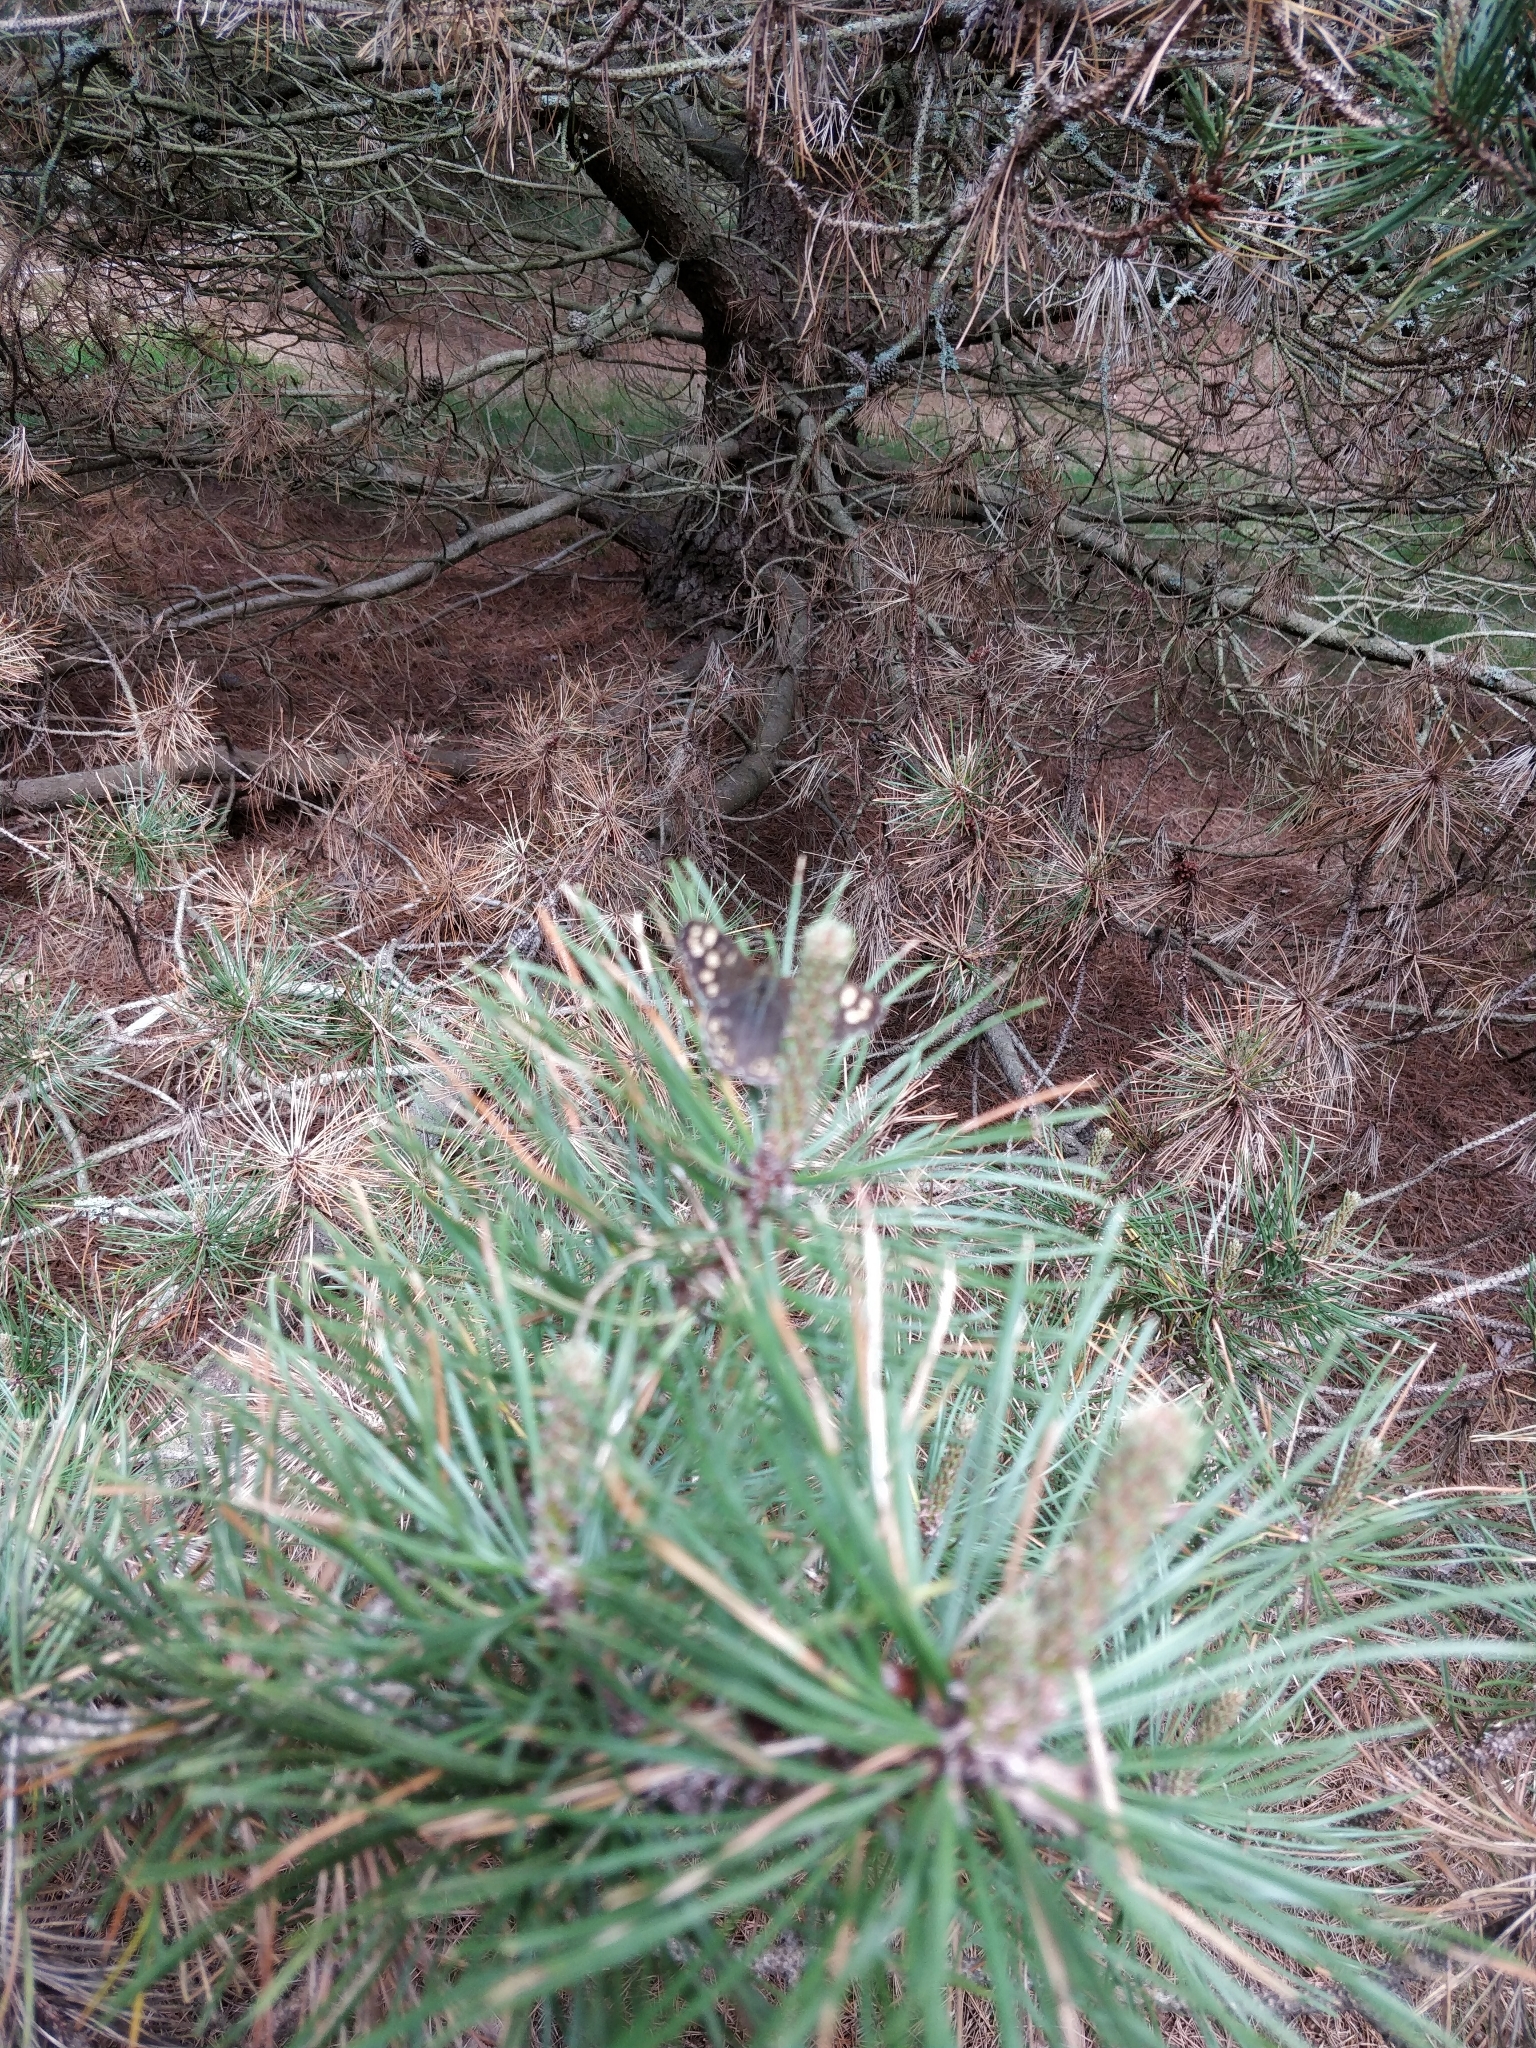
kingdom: Animalia
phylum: Arthropoda
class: Insecta
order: Lepidoptera
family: Nymphalidae
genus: Pararge
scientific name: Pararge aegeria
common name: Speckled wood
